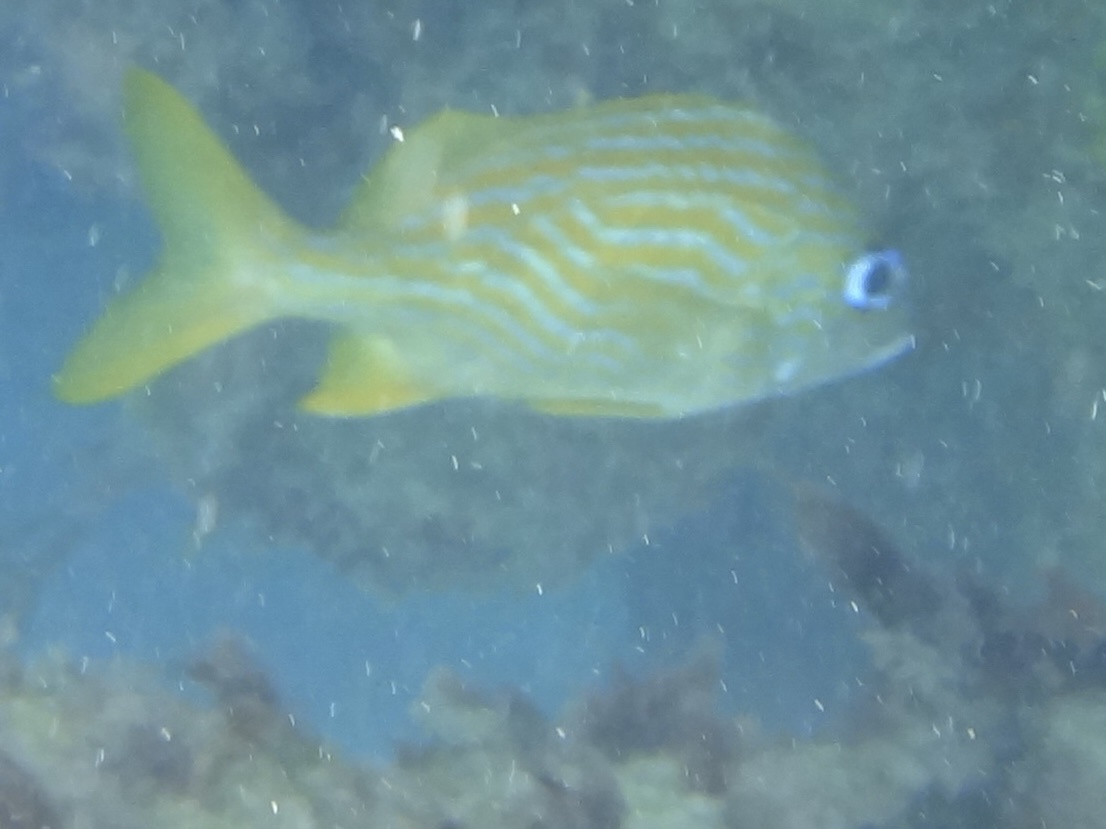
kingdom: Animalia
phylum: Chordata
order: Perciformes
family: Haemulidae
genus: Haemulon
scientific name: Haemulon flavolineatum
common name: French grunt
